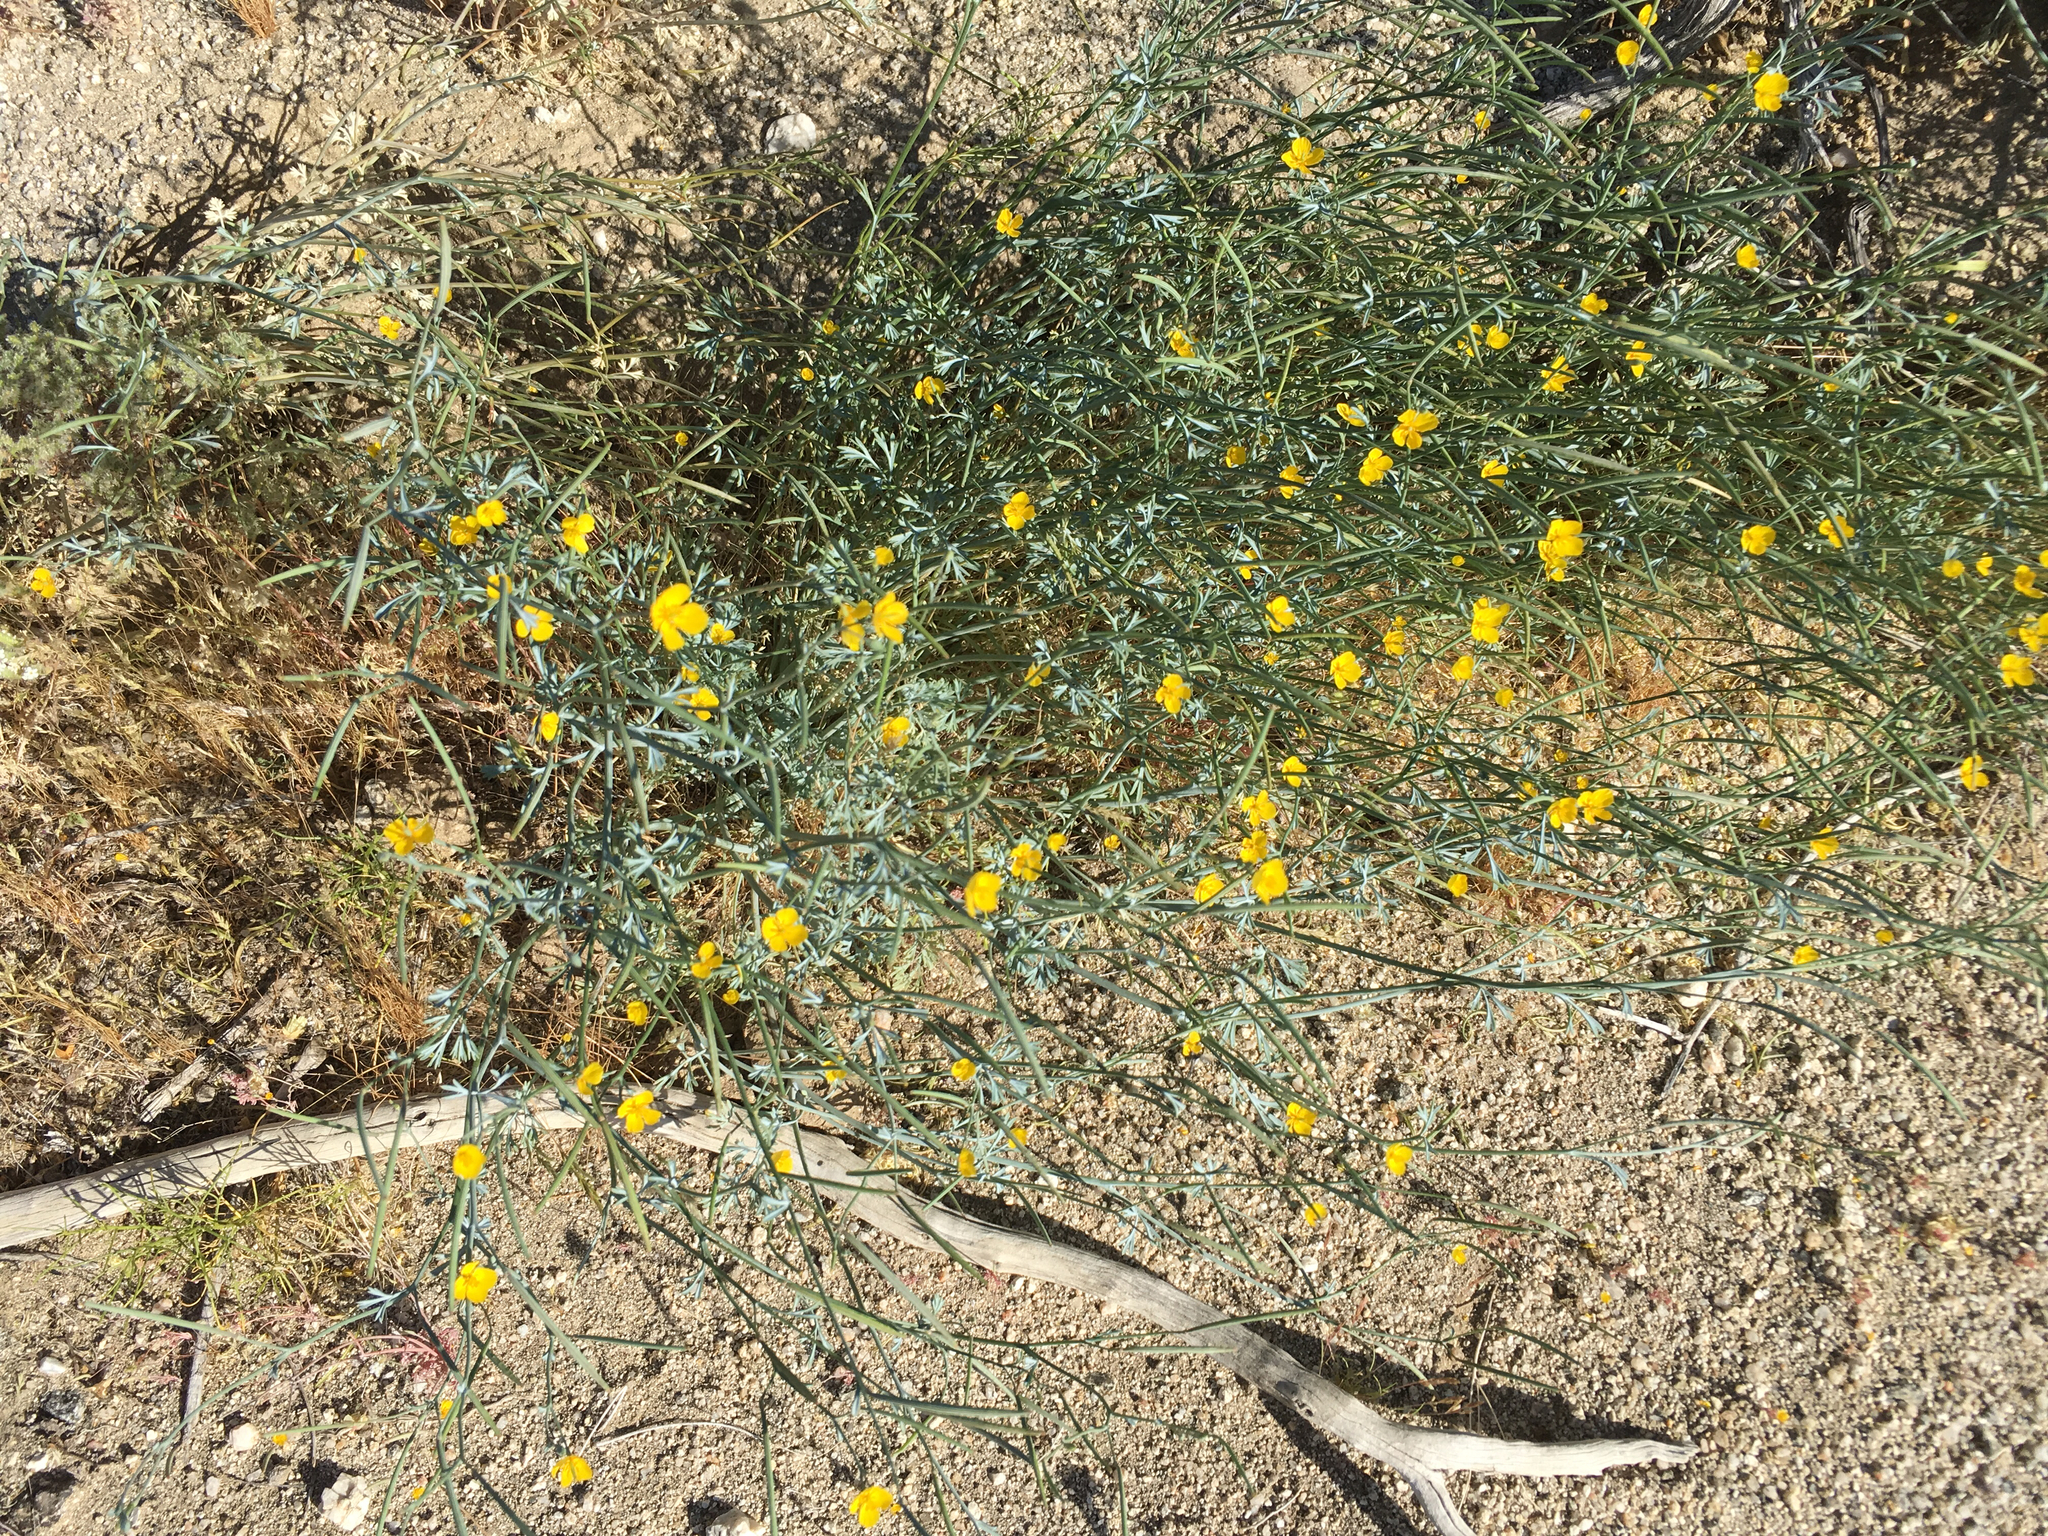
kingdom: Plantae
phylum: Tracheophyta
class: Magnoliopsida
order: Ranunculales
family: Papaveraceae
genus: Eschscholzia
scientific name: Eschscholzia minutiflora
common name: Small-flower california-poppy
